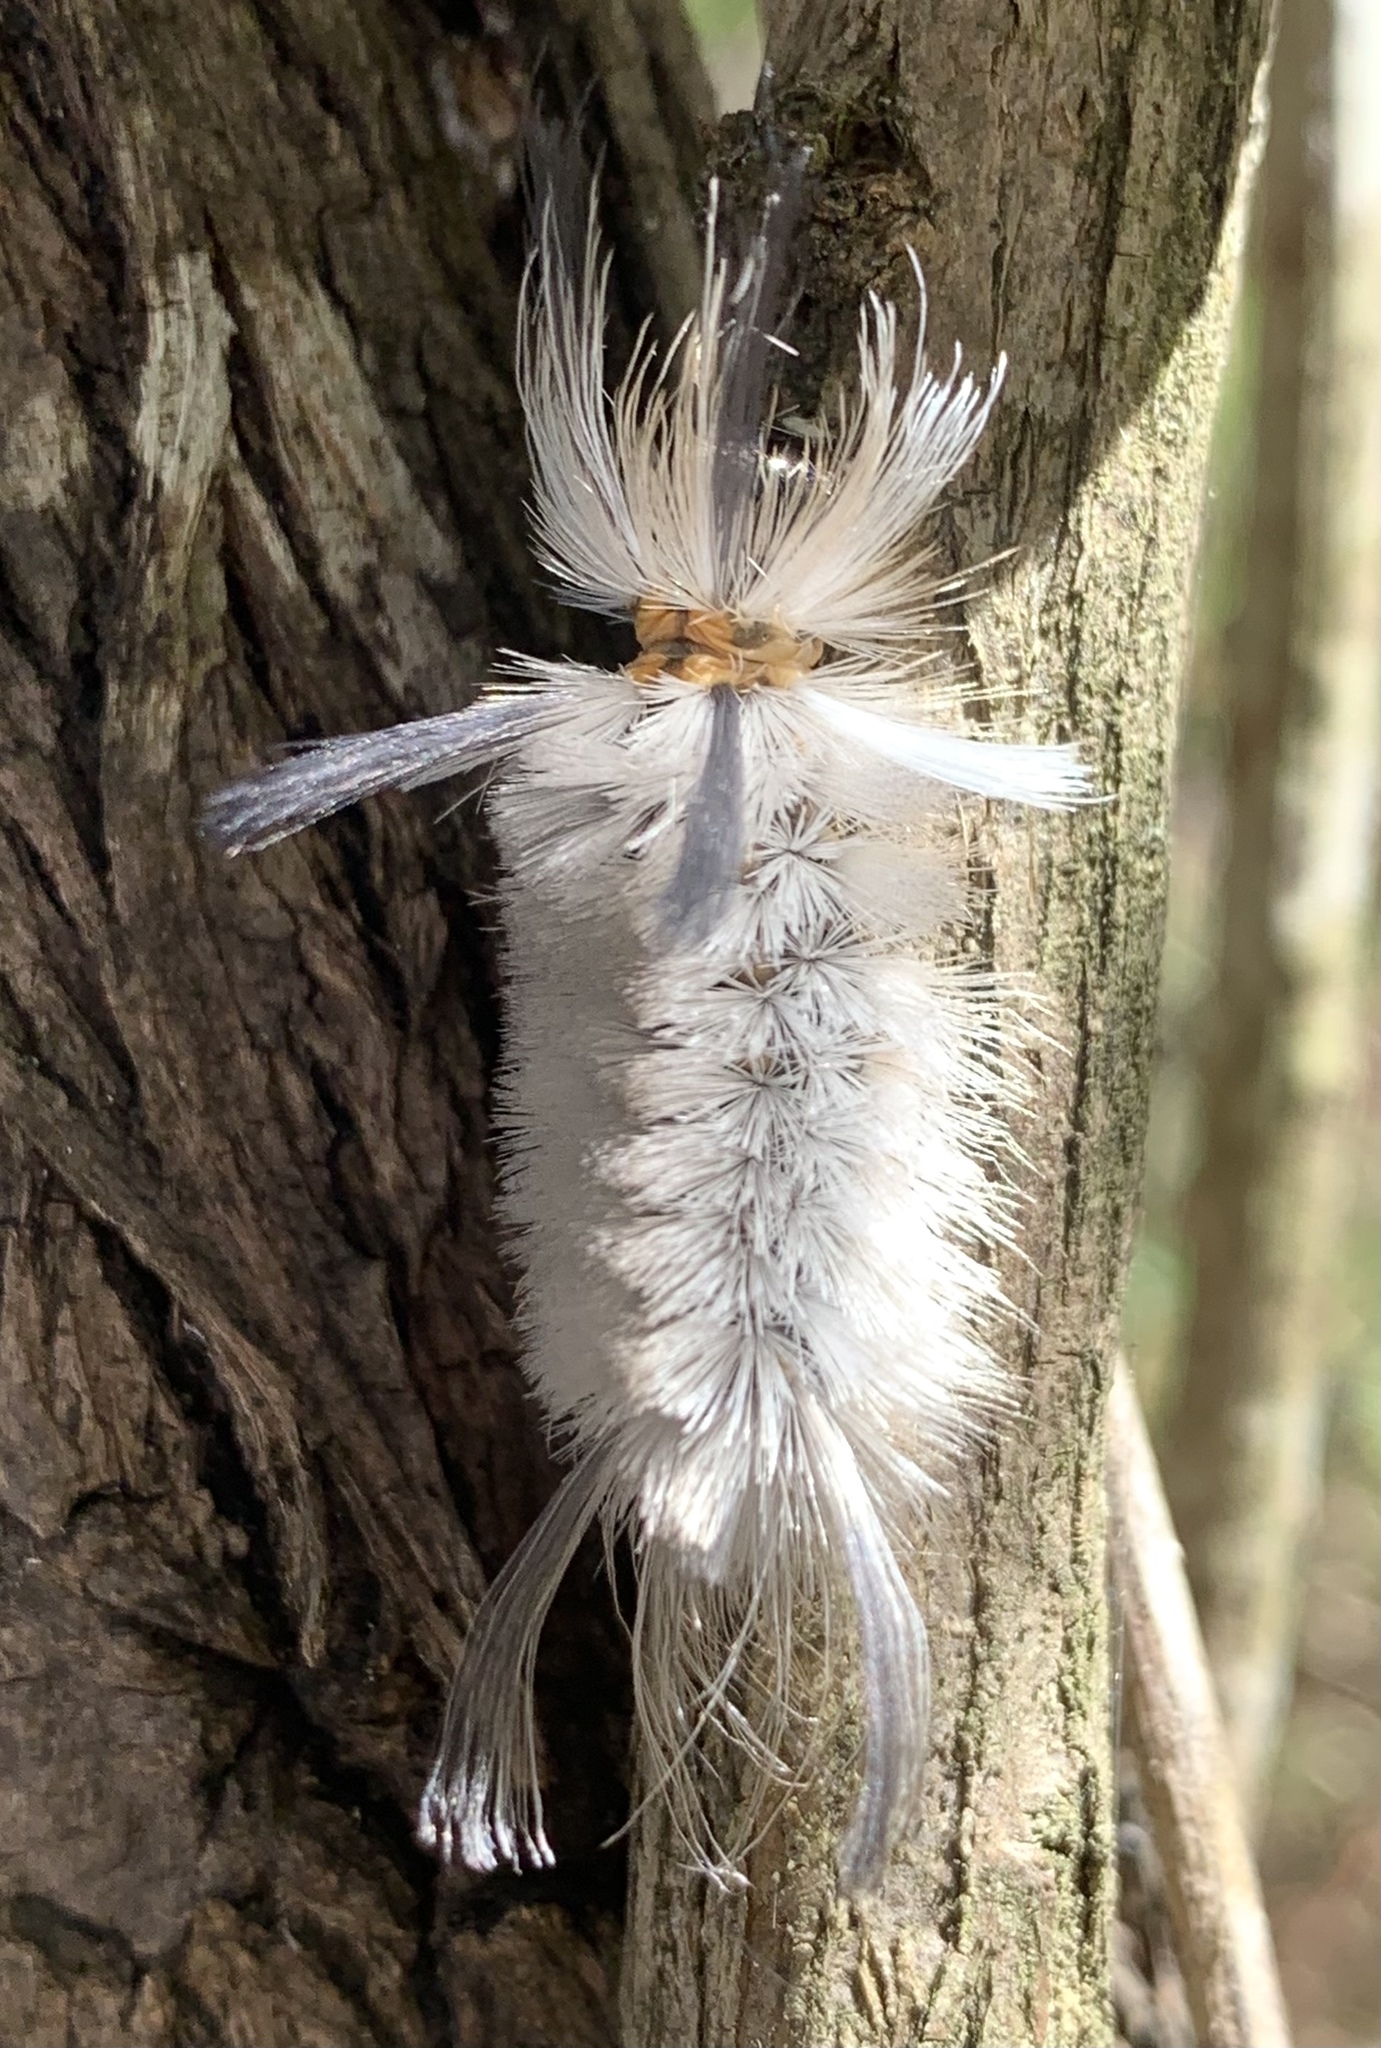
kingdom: Animalia
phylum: Arthropoda
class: Insecta
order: Lepidoptera
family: Erebidae
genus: Halysidota
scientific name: Halysidota tessellaris
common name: Banded tussock moth
